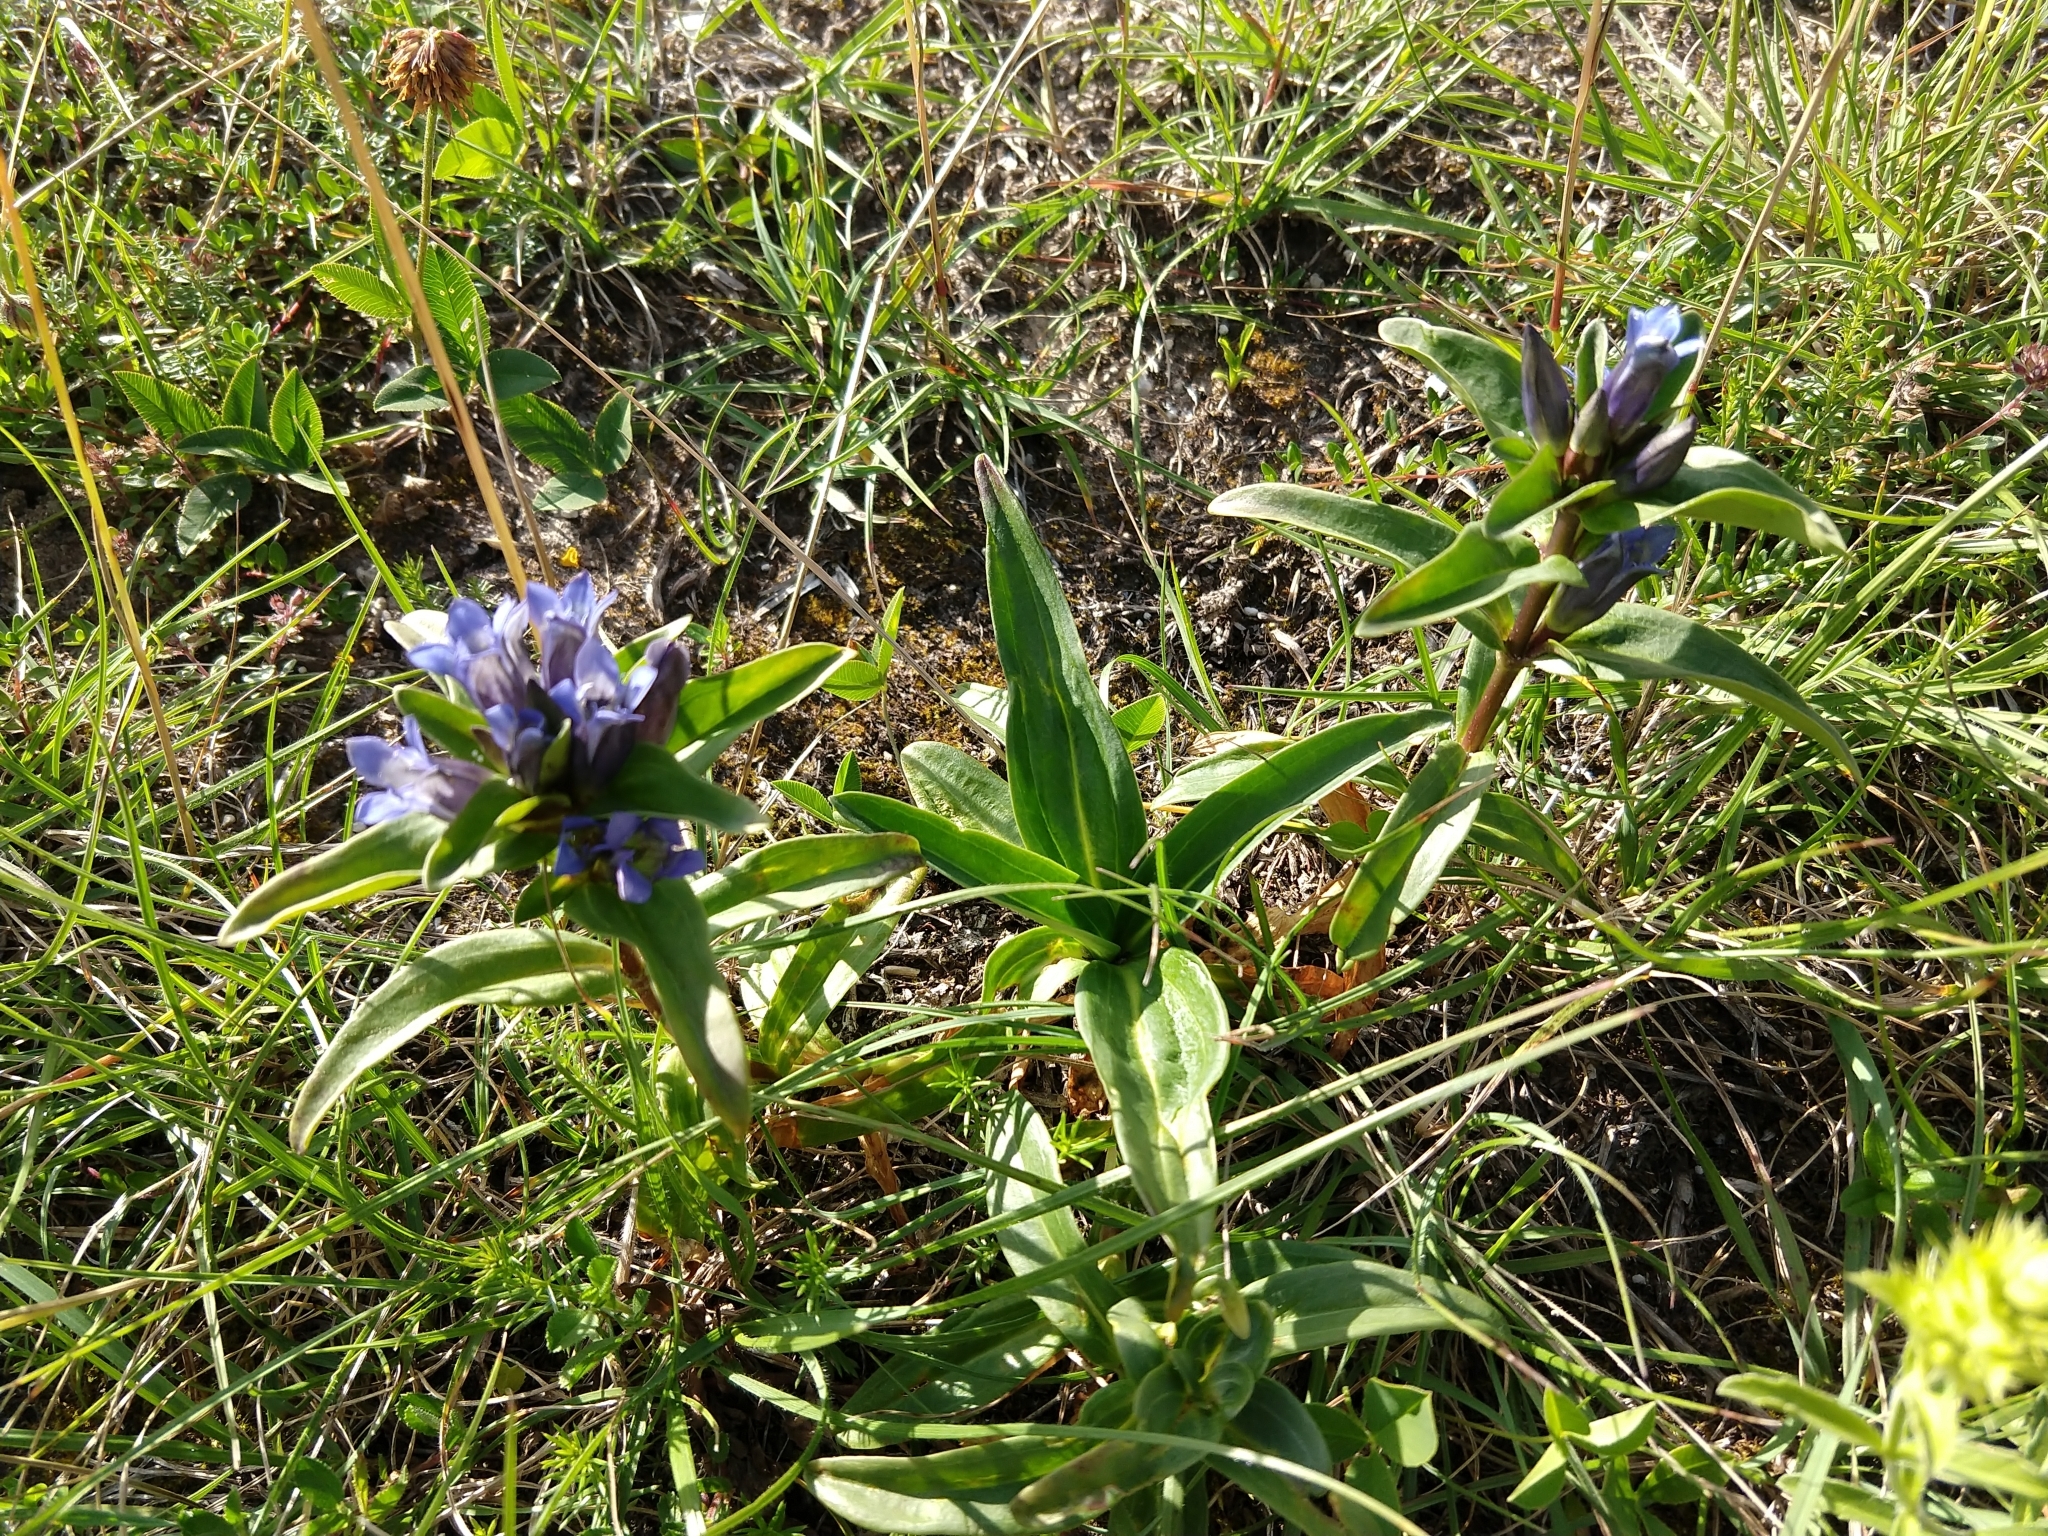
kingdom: Plantae
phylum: Tracheophyta
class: Magnoliopsida
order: Gentianales
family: Gentianaceae
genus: Gentiana
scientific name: Gentiana cruciata
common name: Cross gentian
